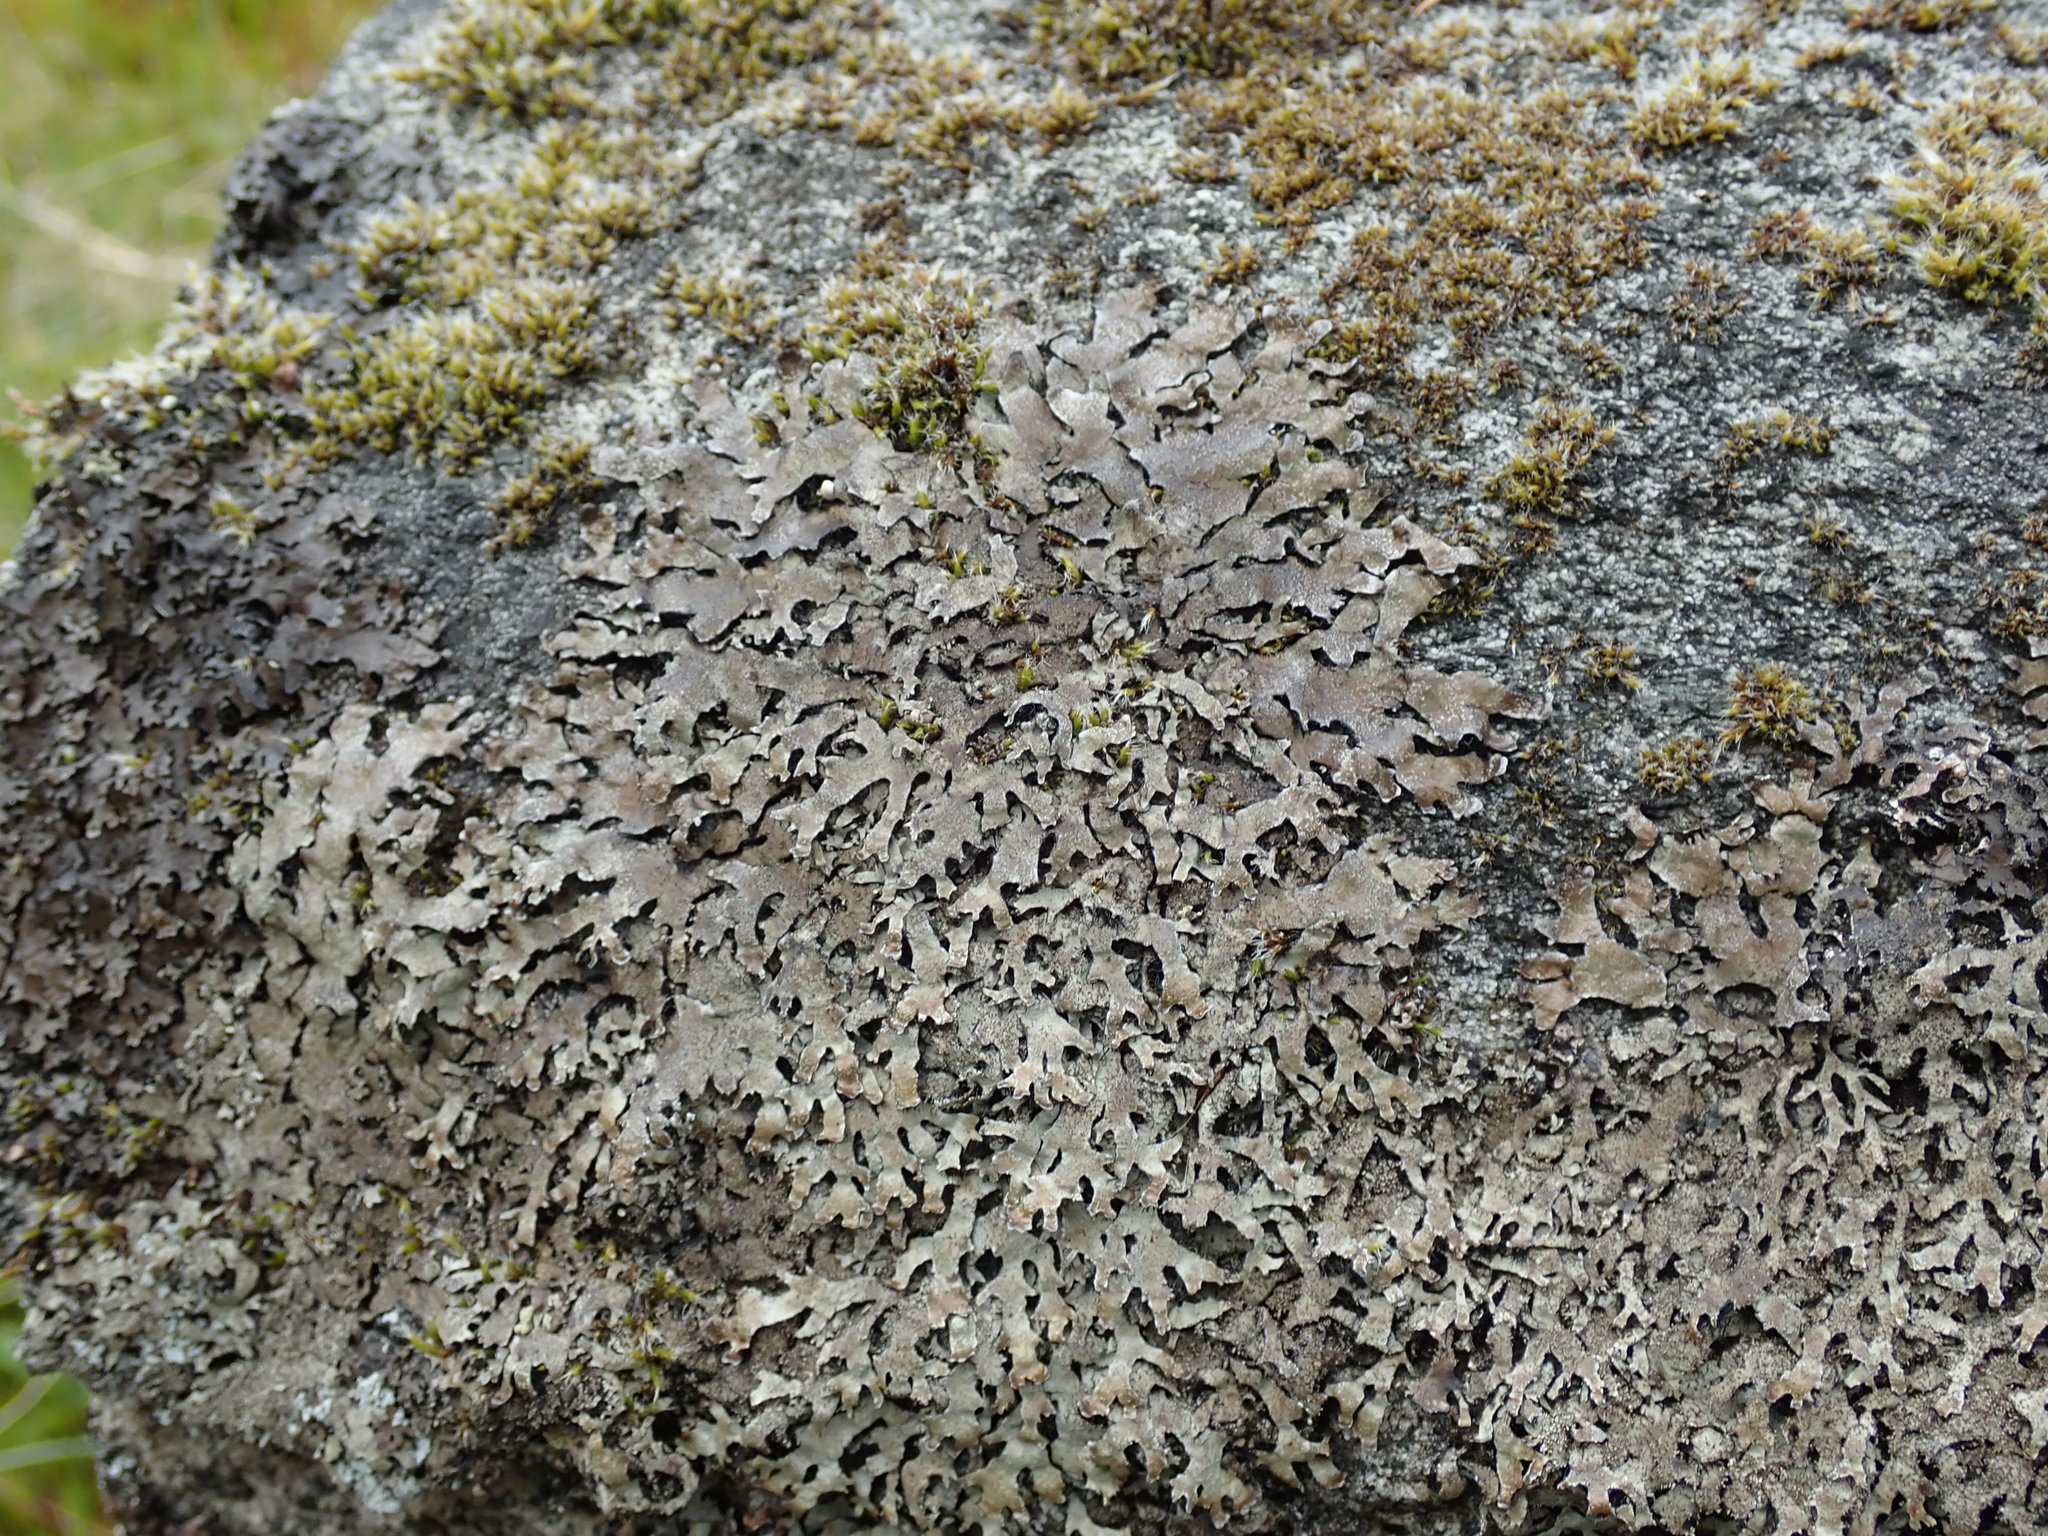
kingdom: Fungi
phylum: Ascomycota
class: Lecanoromycetes
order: Lecanorales
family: Parmeliaceae
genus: Parmelia
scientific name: Parmelia saxatilis
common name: Salted shield lichen
